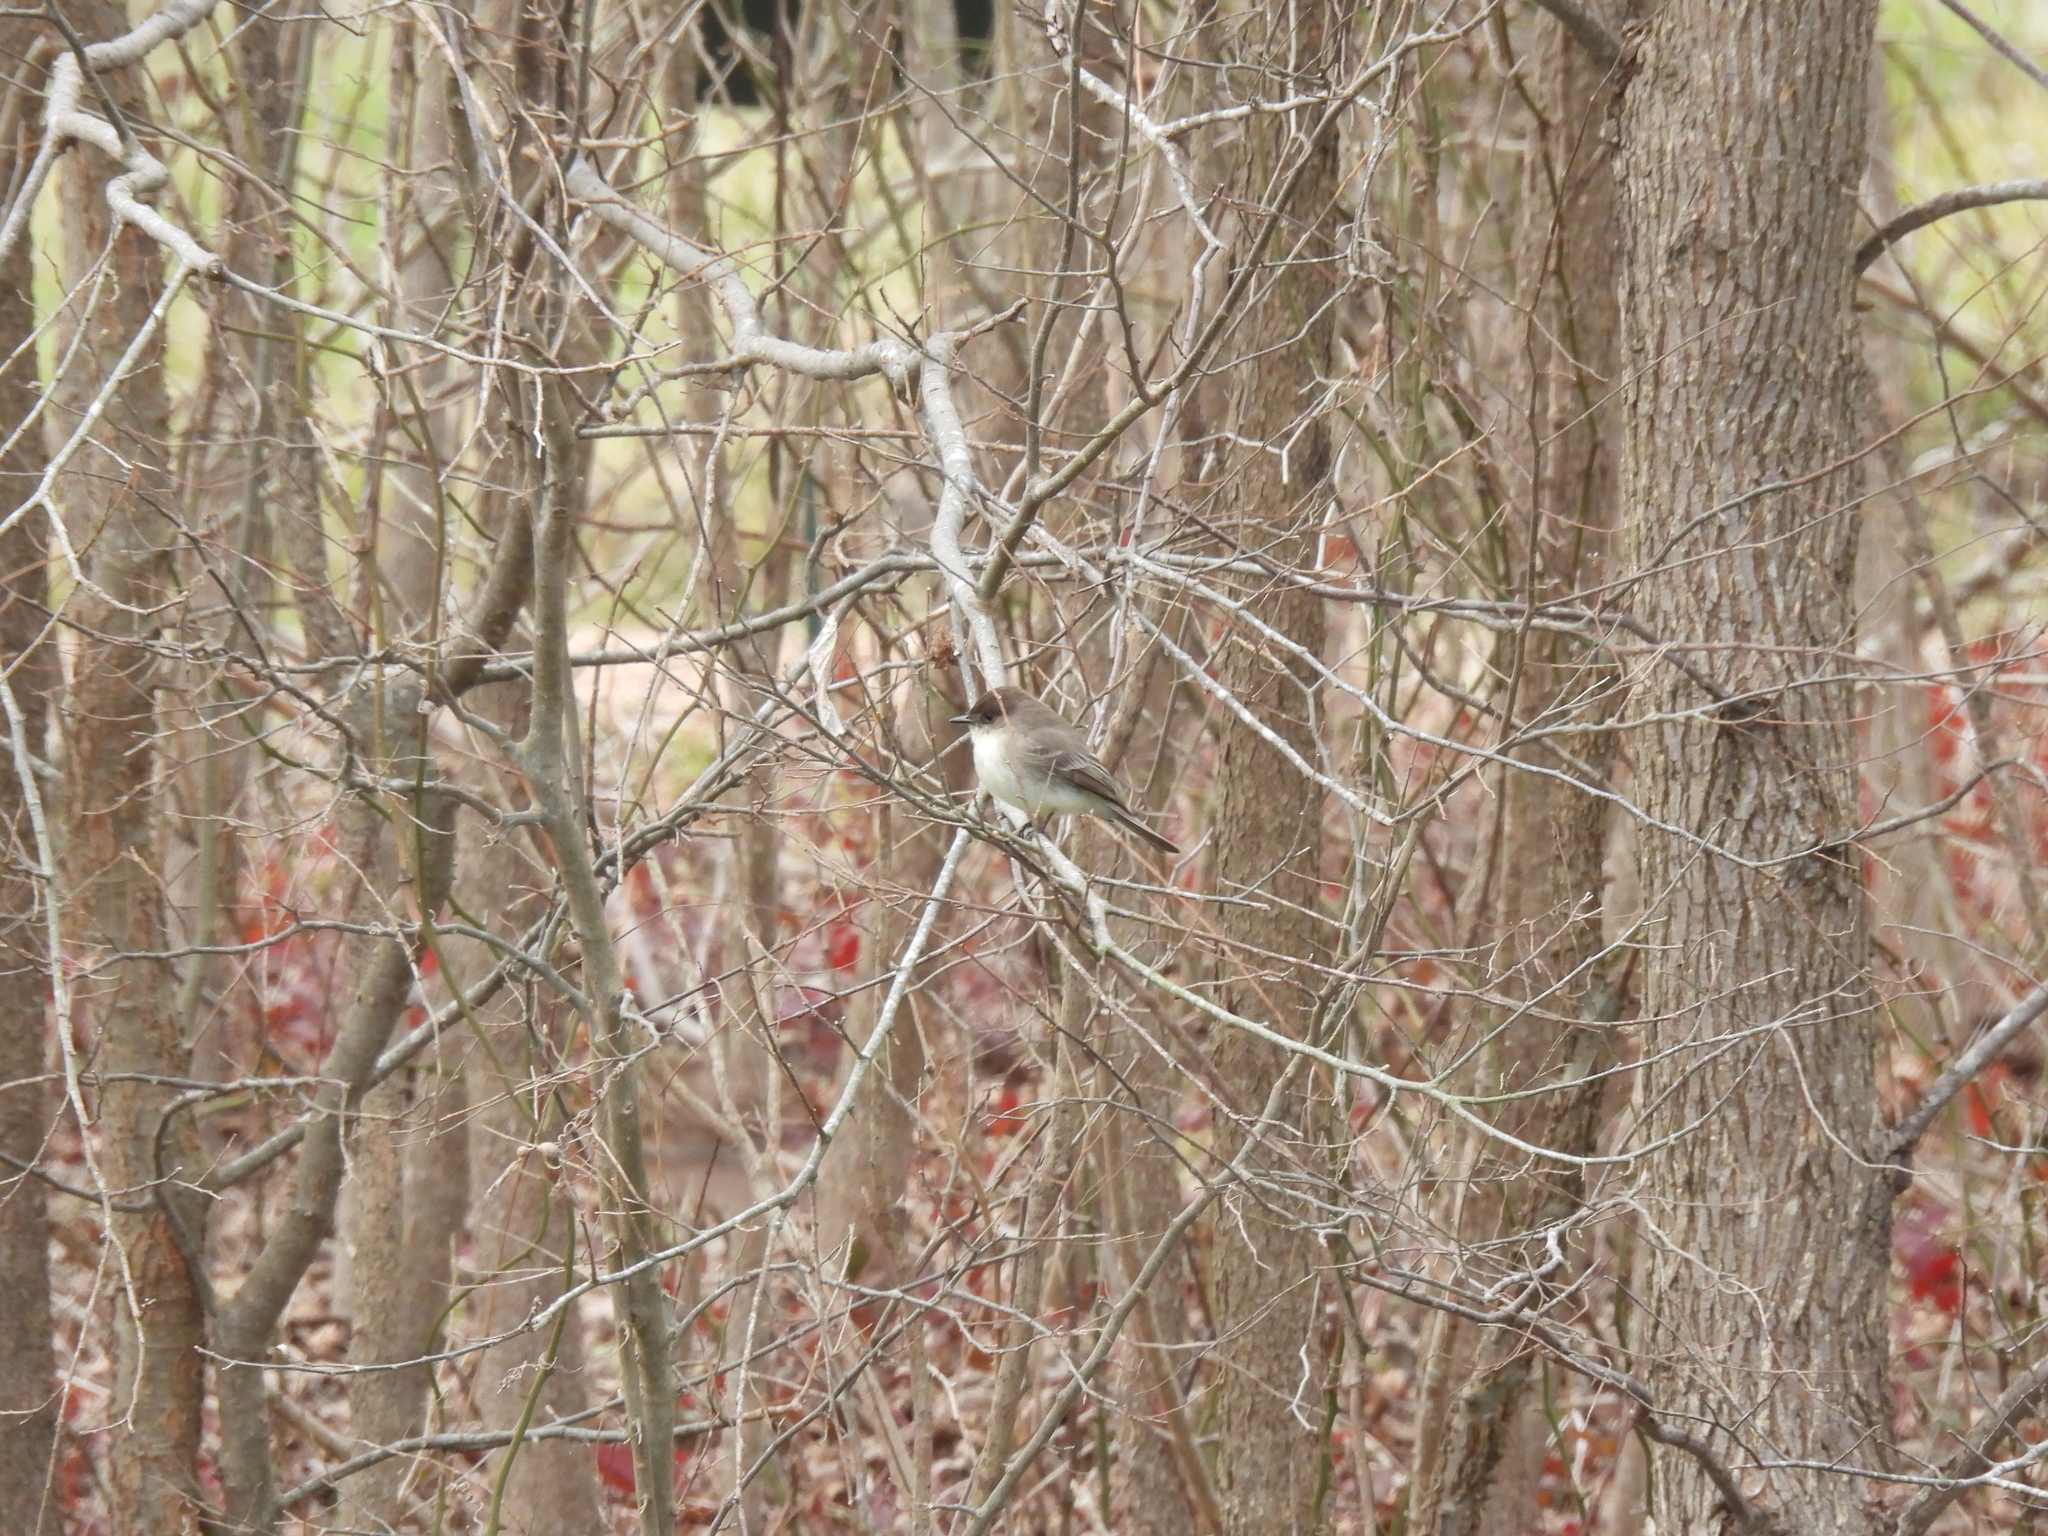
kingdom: Animalia
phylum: Chordata
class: Aves
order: Passeriformes
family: Tyrannidae
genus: Sayornis
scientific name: Sayornis phoebe
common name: Eastern phoebe
